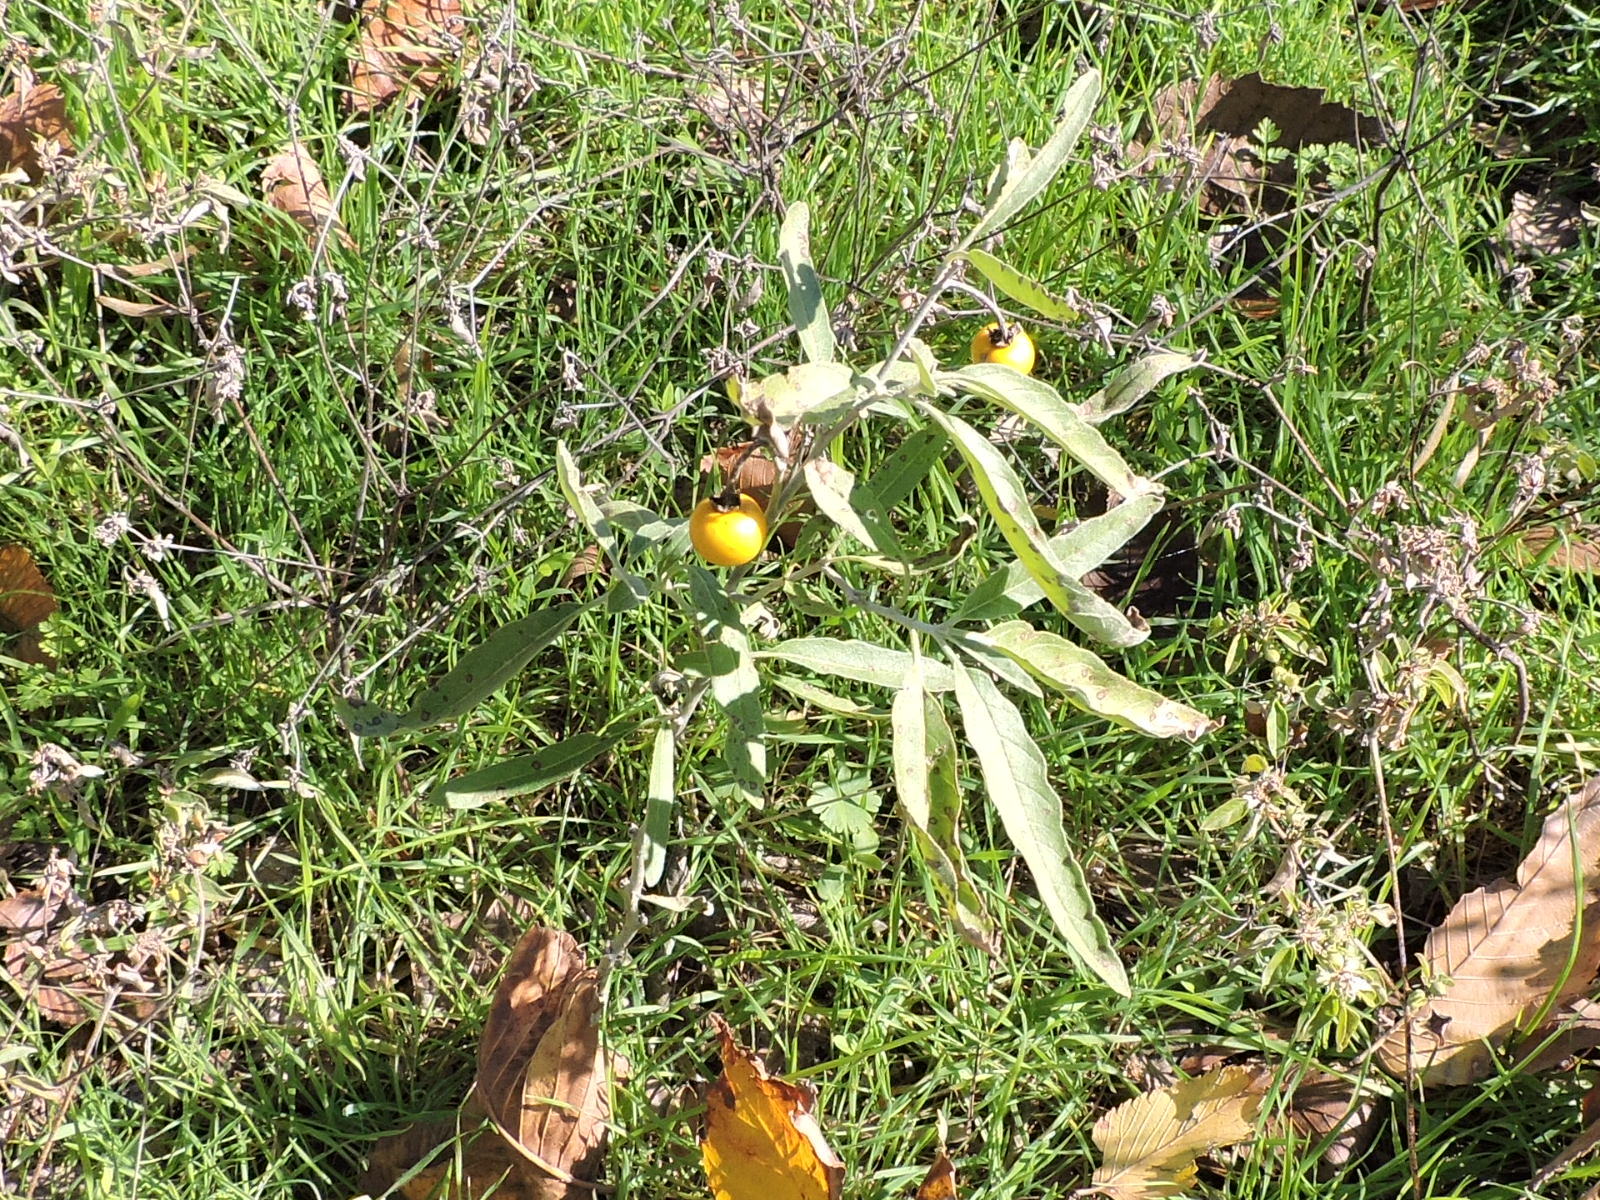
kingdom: Plantae
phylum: Tracheophyta
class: Magnoliopsida
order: Solanales
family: Solanaceae
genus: Solanum
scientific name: Solanum elaeagnifolium
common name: Silverleaf nightshade
